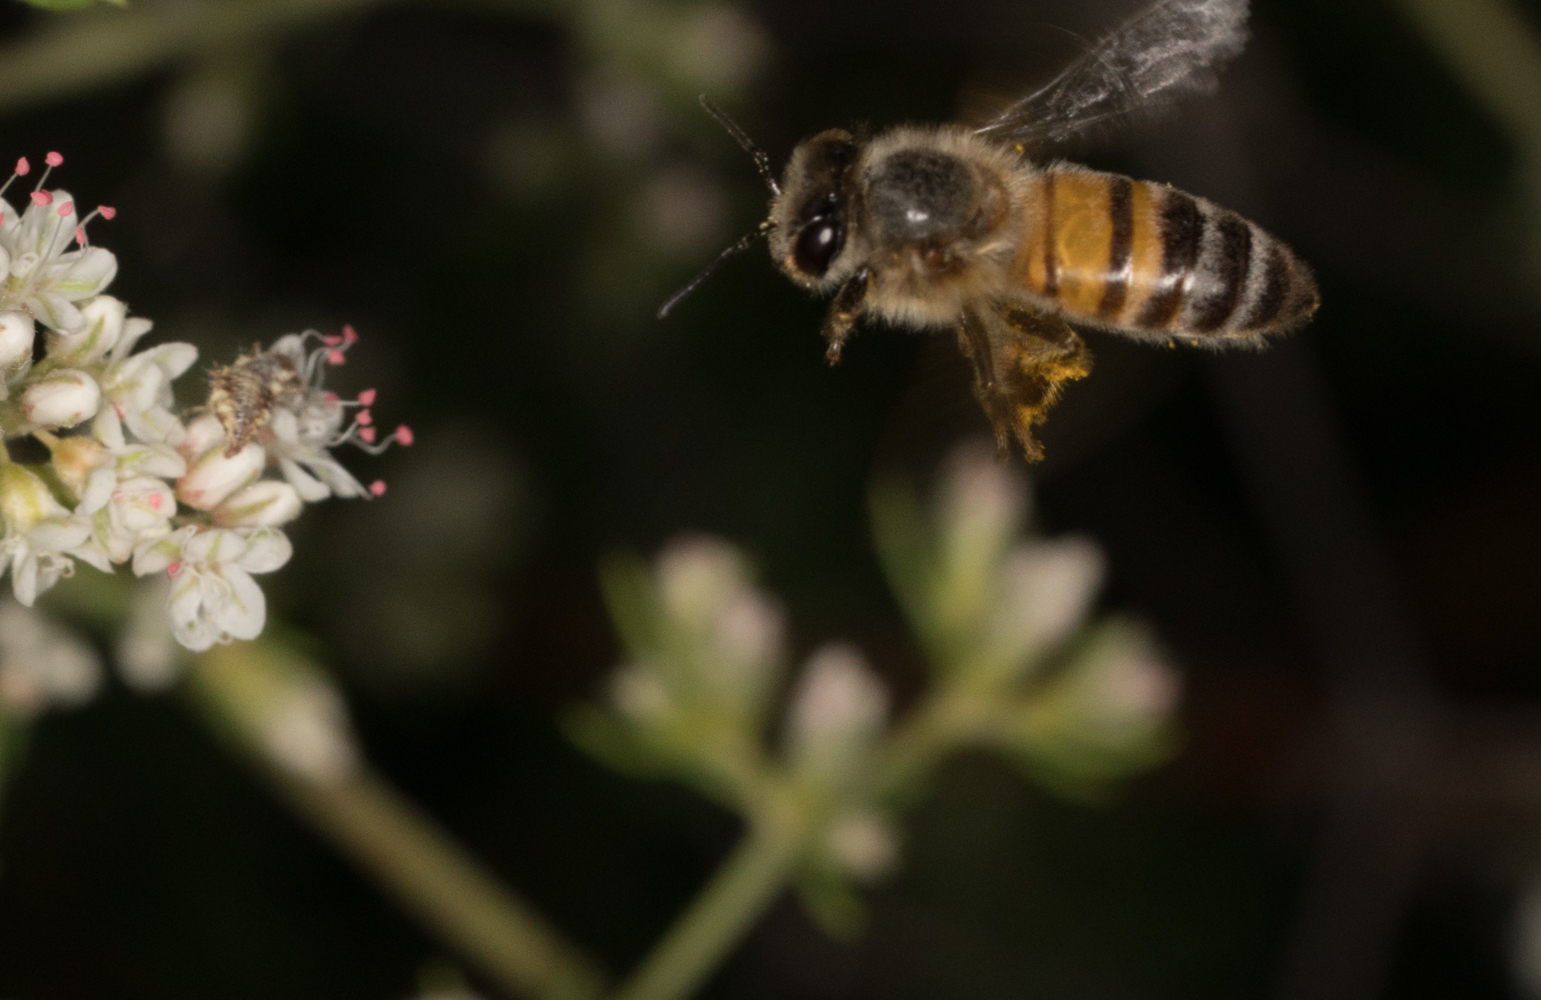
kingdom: Animalia
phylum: Arthropoda
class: Insecta
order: Hymenoptera
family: Apidae
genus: Apis
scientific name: Apis mellifera
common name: Honey bee
